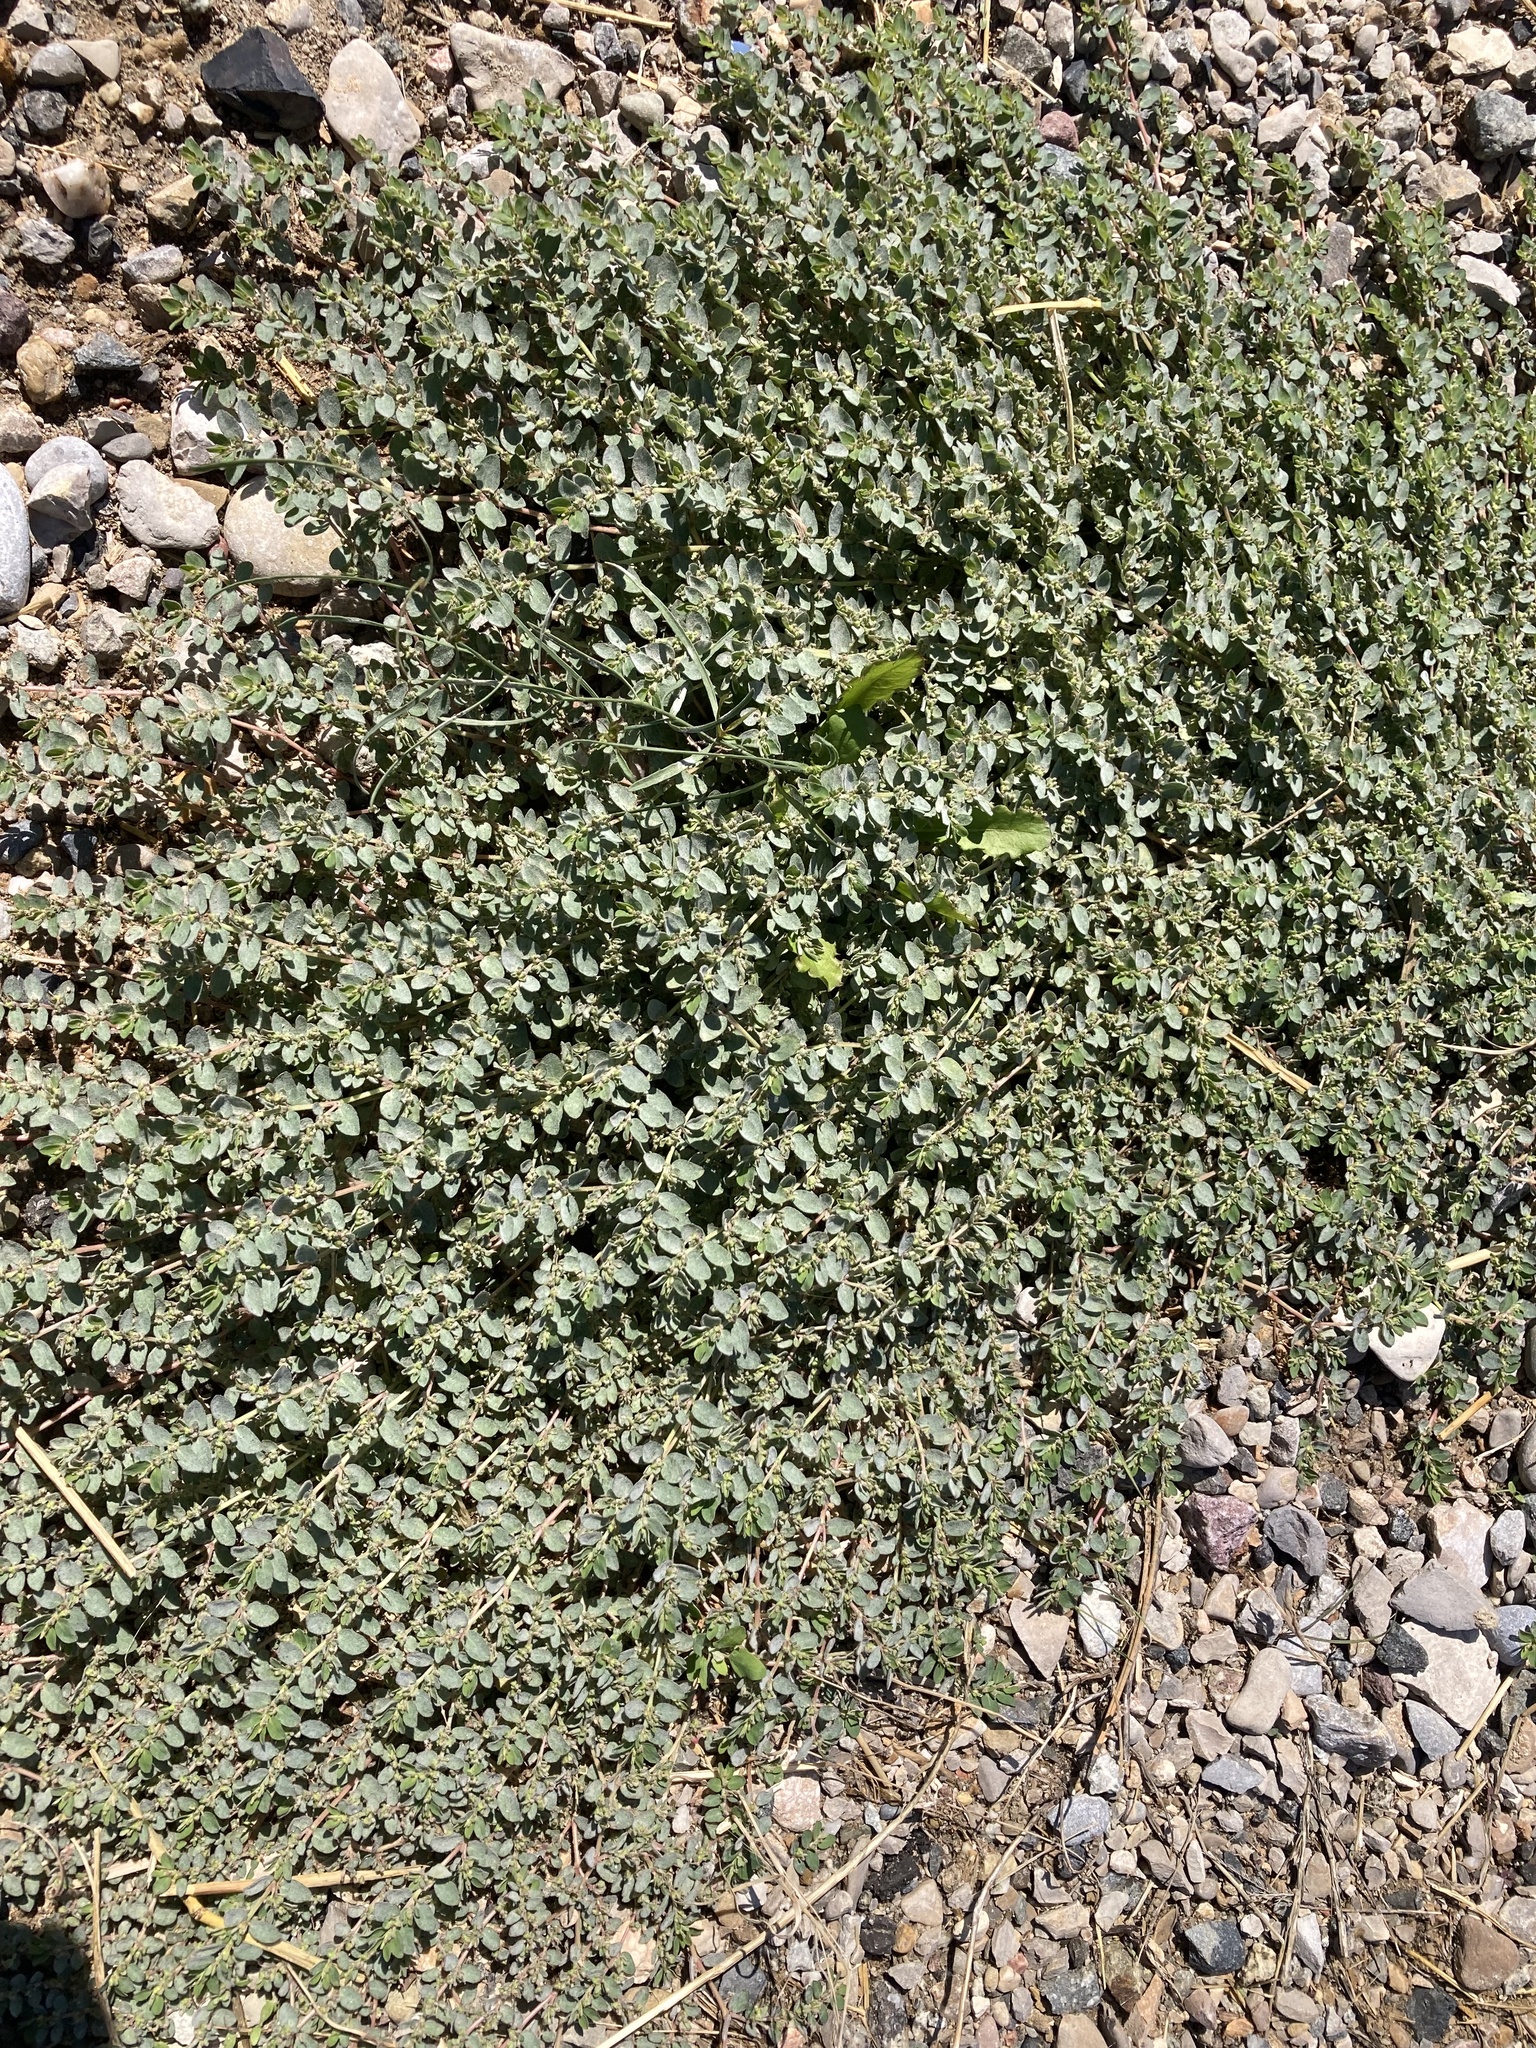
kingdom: Plantae
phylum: Tracheophyta
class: Magnoliopsida
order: Malpighiales
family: Euphorbiaceae
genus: Euphorbia
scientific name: Euphorbia prostrata
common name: Prostrate sandmat
